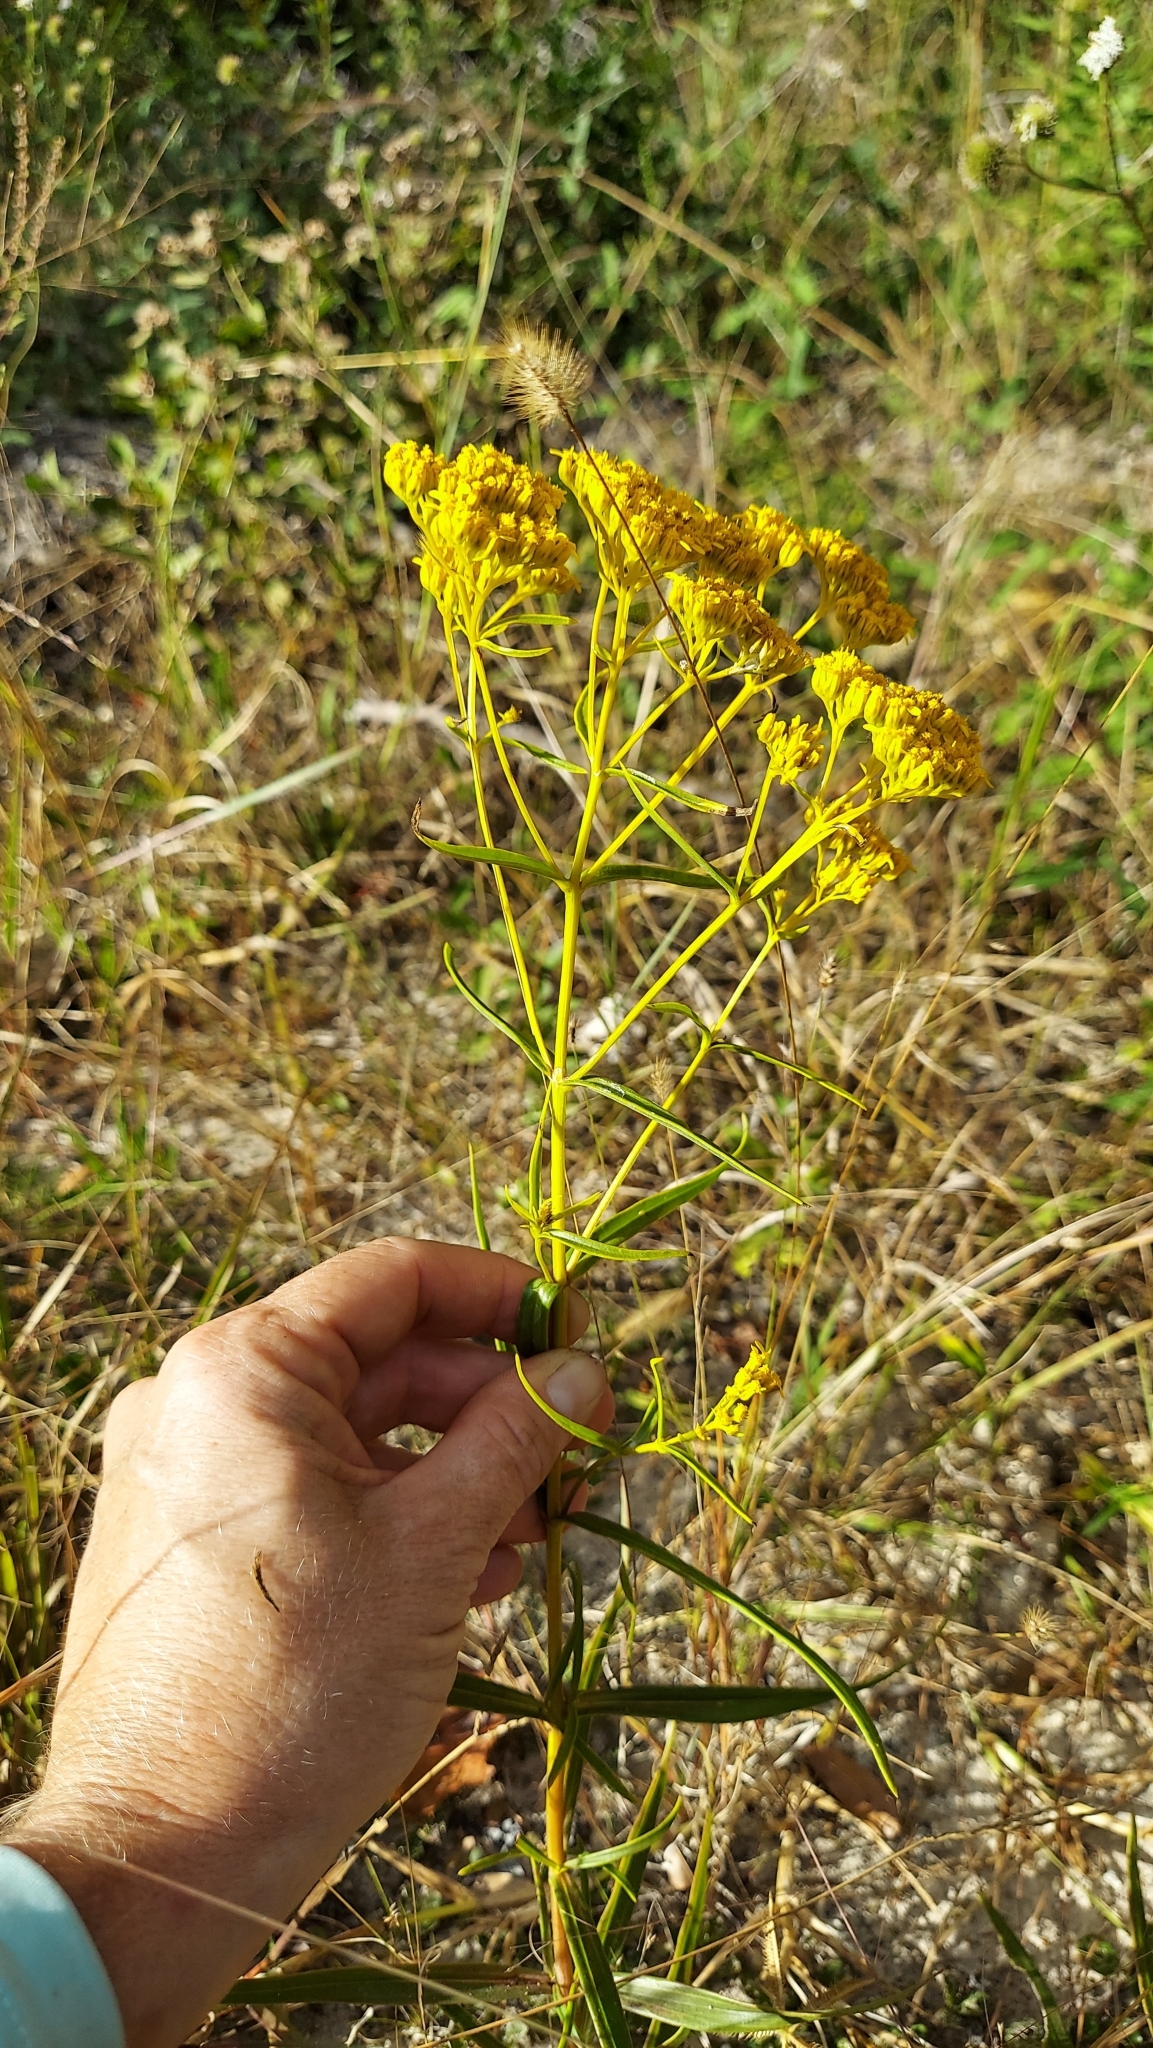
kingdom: Plantae
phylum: Tracheophyta
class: Magnoliopsida
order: Asterales
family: Asteraceae
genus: Flaveria
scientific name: Flaveria linearis
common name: Yellowtop
